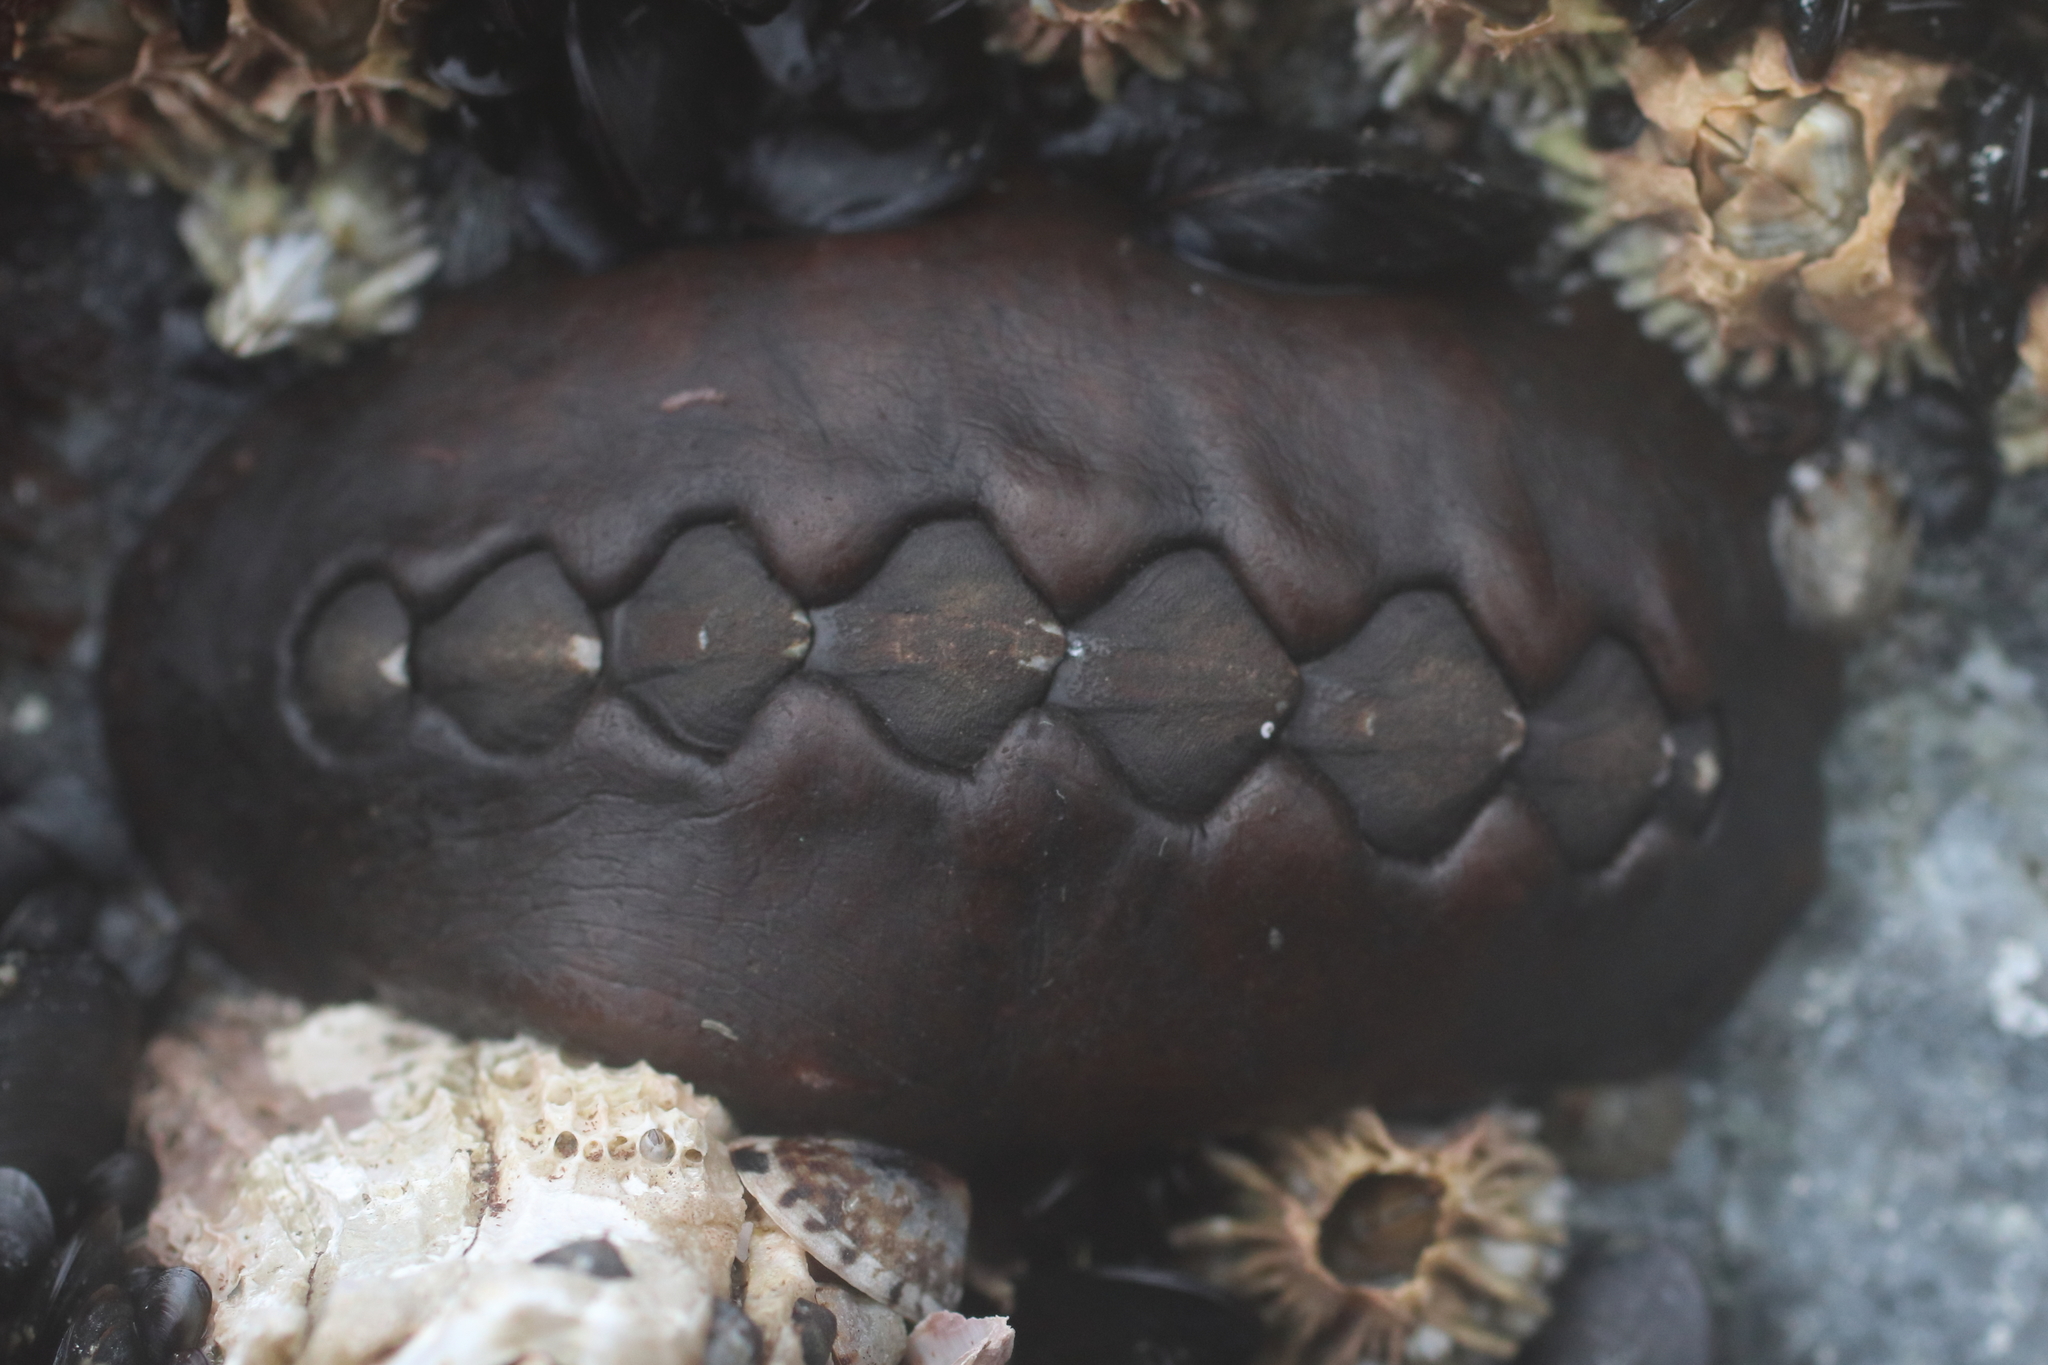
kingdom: Animalia
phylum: Mollusca
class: Polyplacophora
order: Chitonida
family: Mopaliidae
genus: Katharina
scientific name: Katharina tunicata
